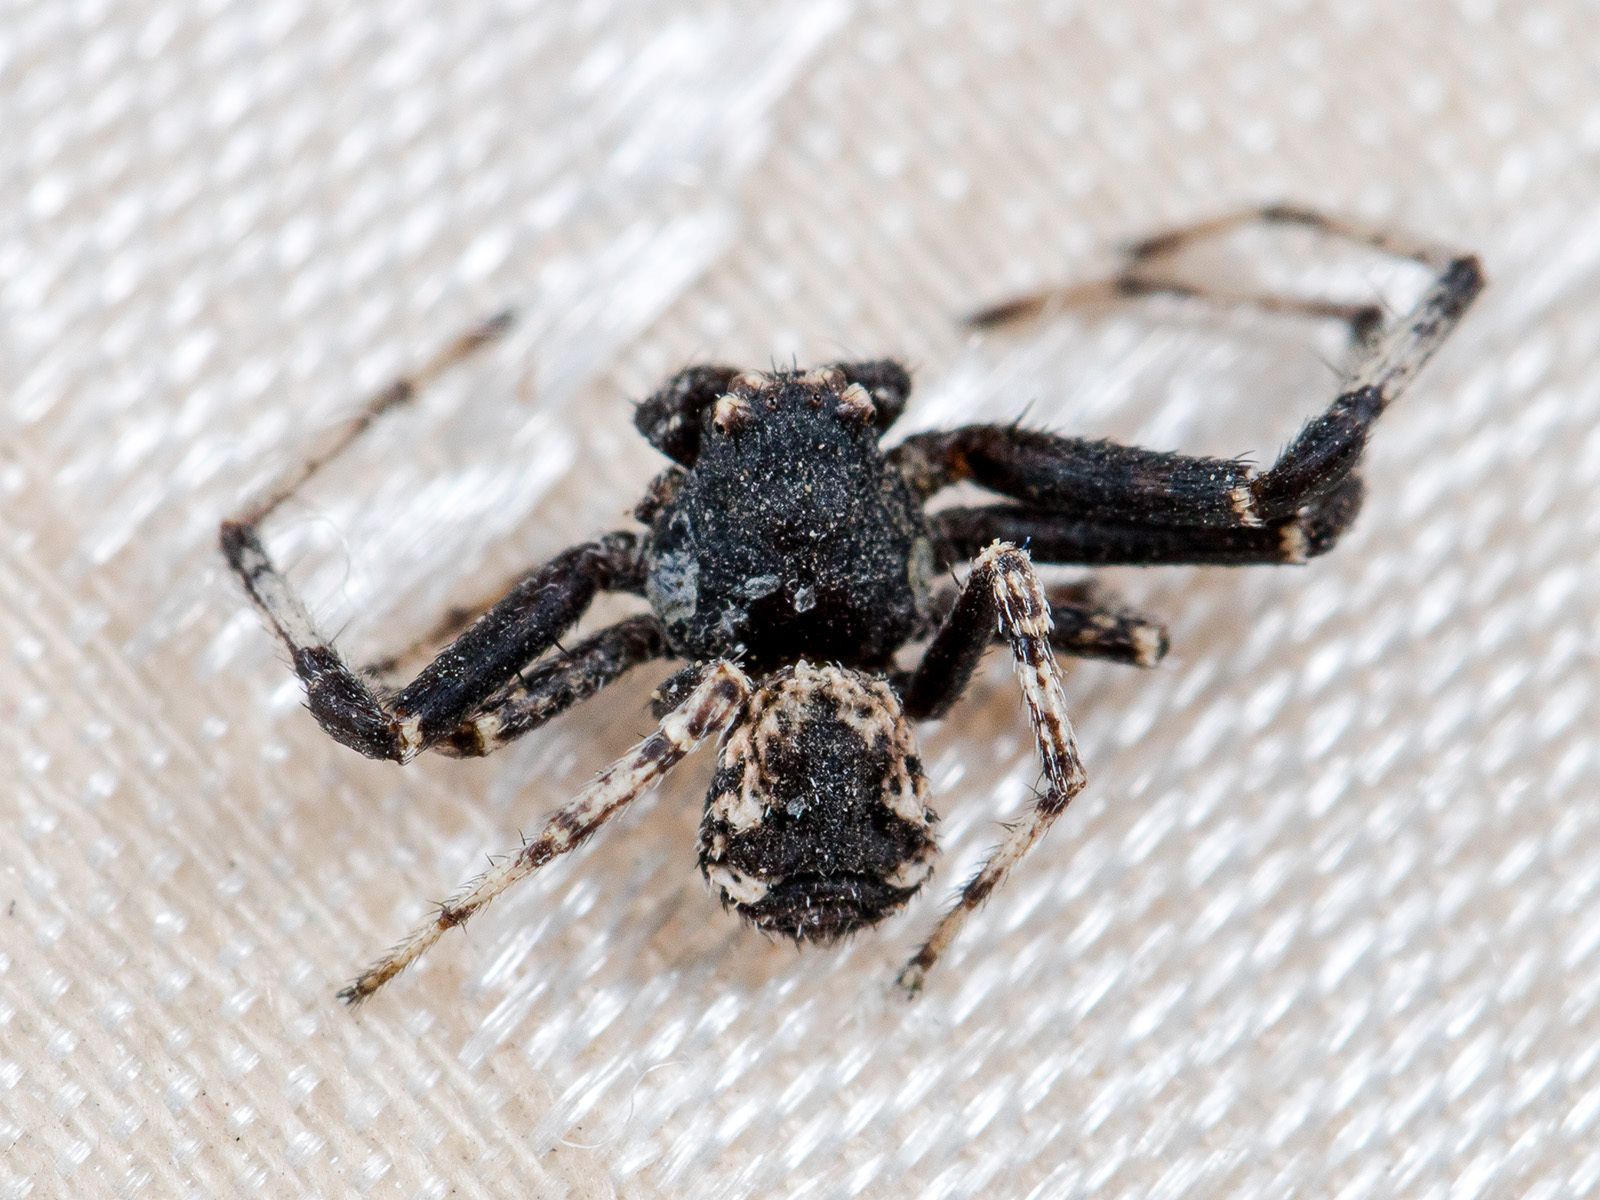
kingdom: Animalia
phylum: Arthropoda
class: Arachnida
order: Araneae
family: Thomisidae
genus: Ozyptila
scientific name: Ozyptila lugubris
